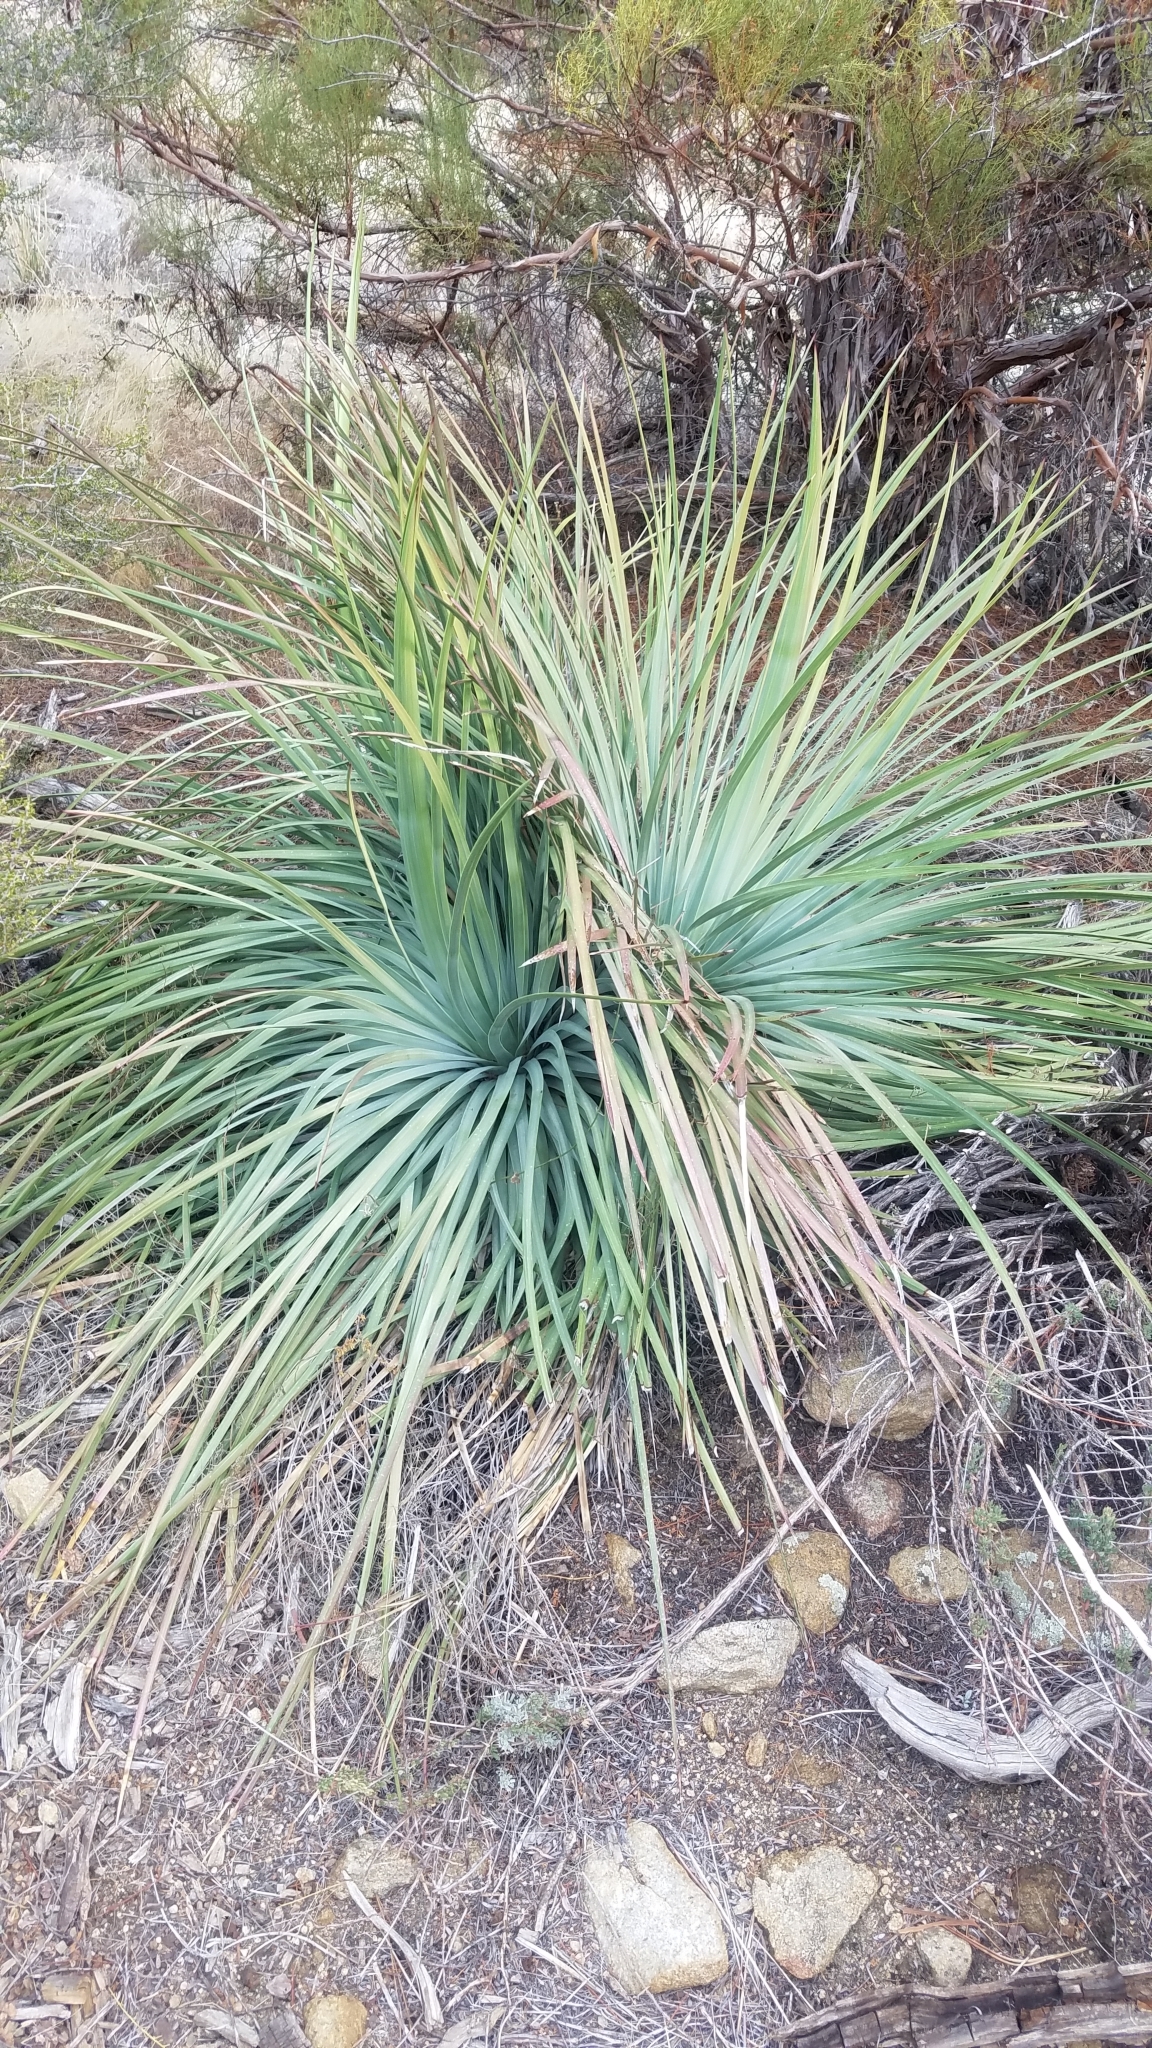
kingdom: Plantae
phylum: Tracheophyta
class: Liliopsida
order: Asparagales
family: Asparagaceae
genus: Hesperoyucca
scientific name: Hesperoyucca whipplei
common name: Our lord's-candle
